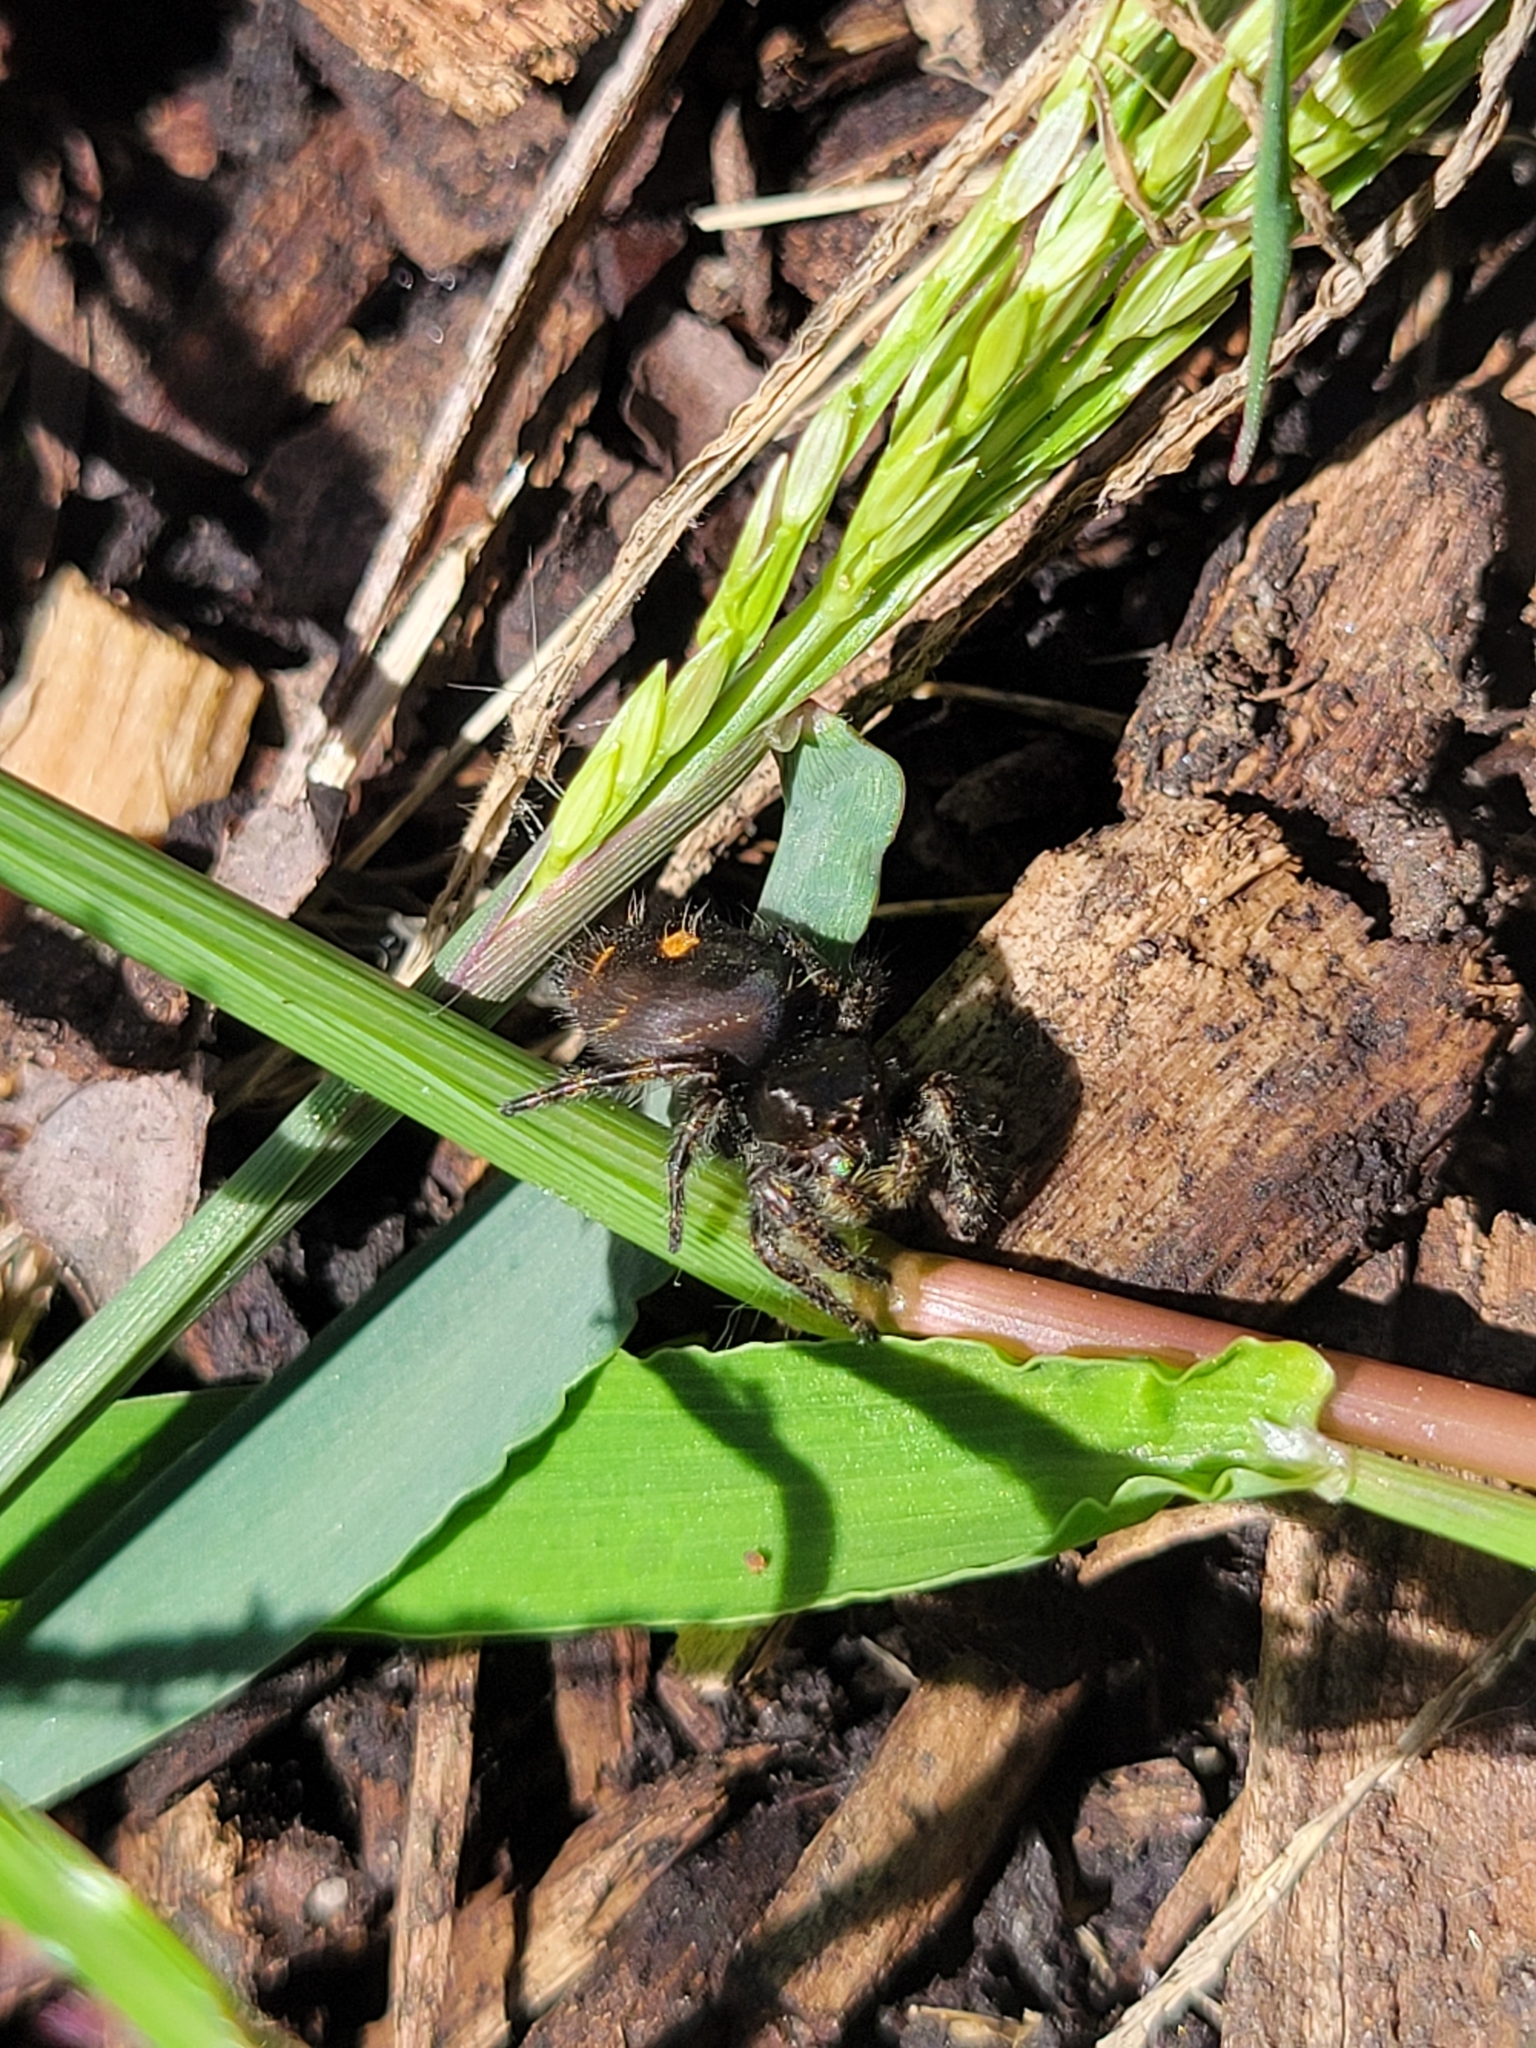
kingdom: Animalia
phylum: Arthropoda
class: Arachnida
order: Araneae
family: Salticidae
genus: Phidippus
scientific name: Phidippus audax
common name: Bold jumper
